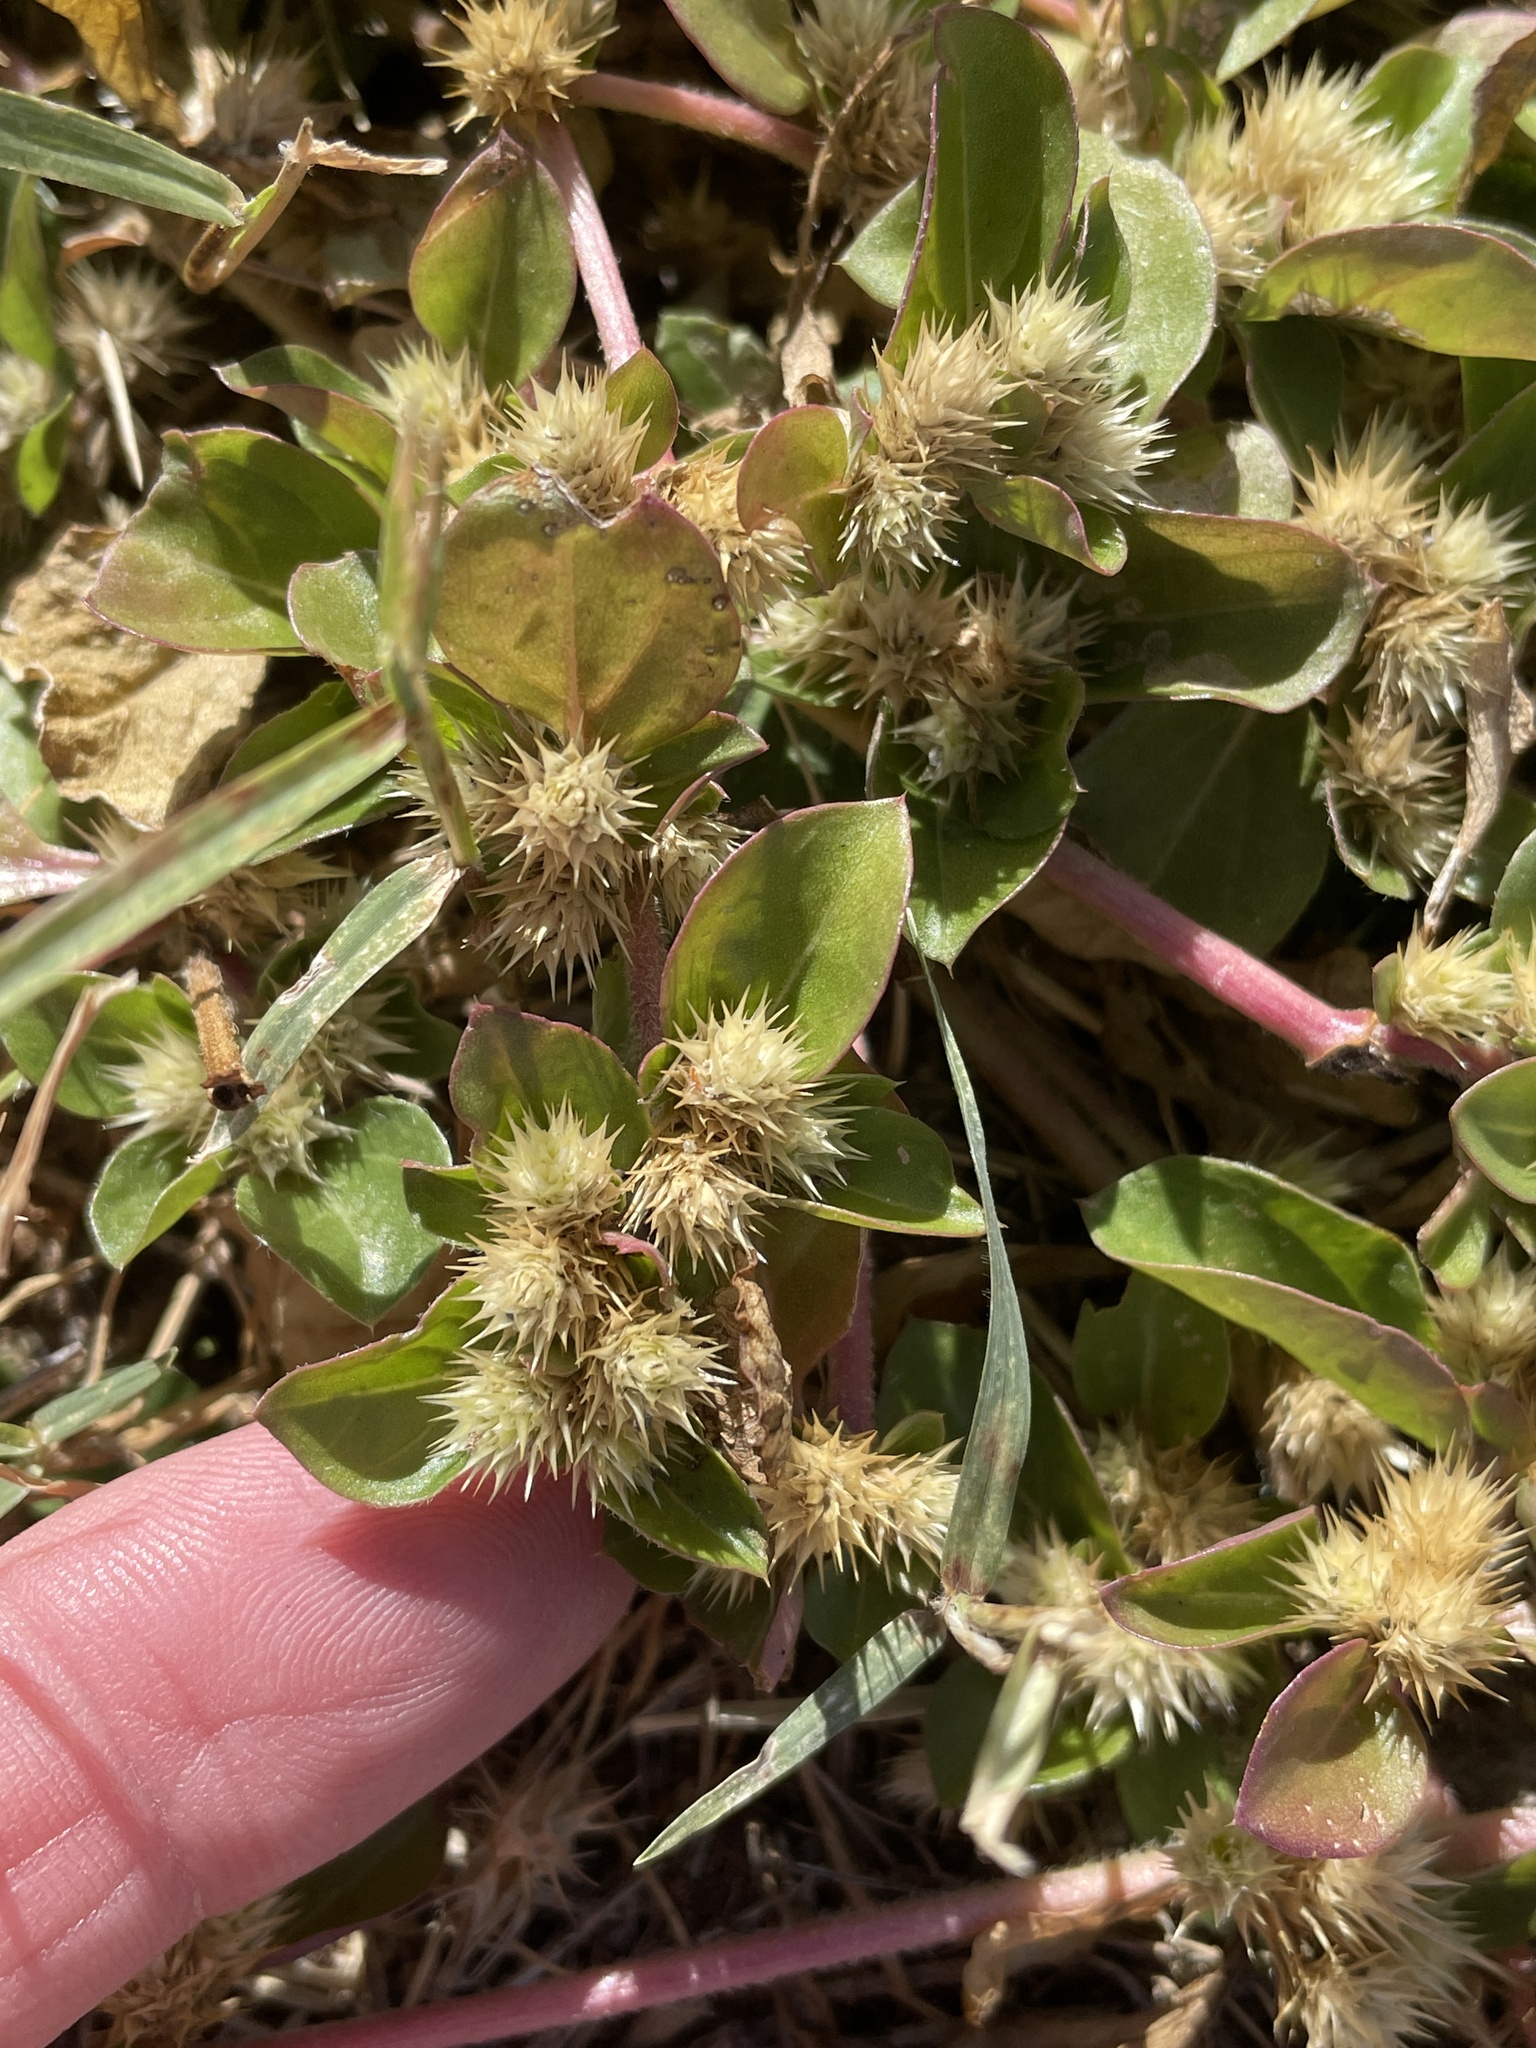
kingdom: Plantae
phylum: Tracheophyta
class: Magnoliopsida
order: Caryophyllales
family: Amaranthaceae
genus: Alternanthera
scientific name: Alternanthera pungens
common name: Khakiweed
